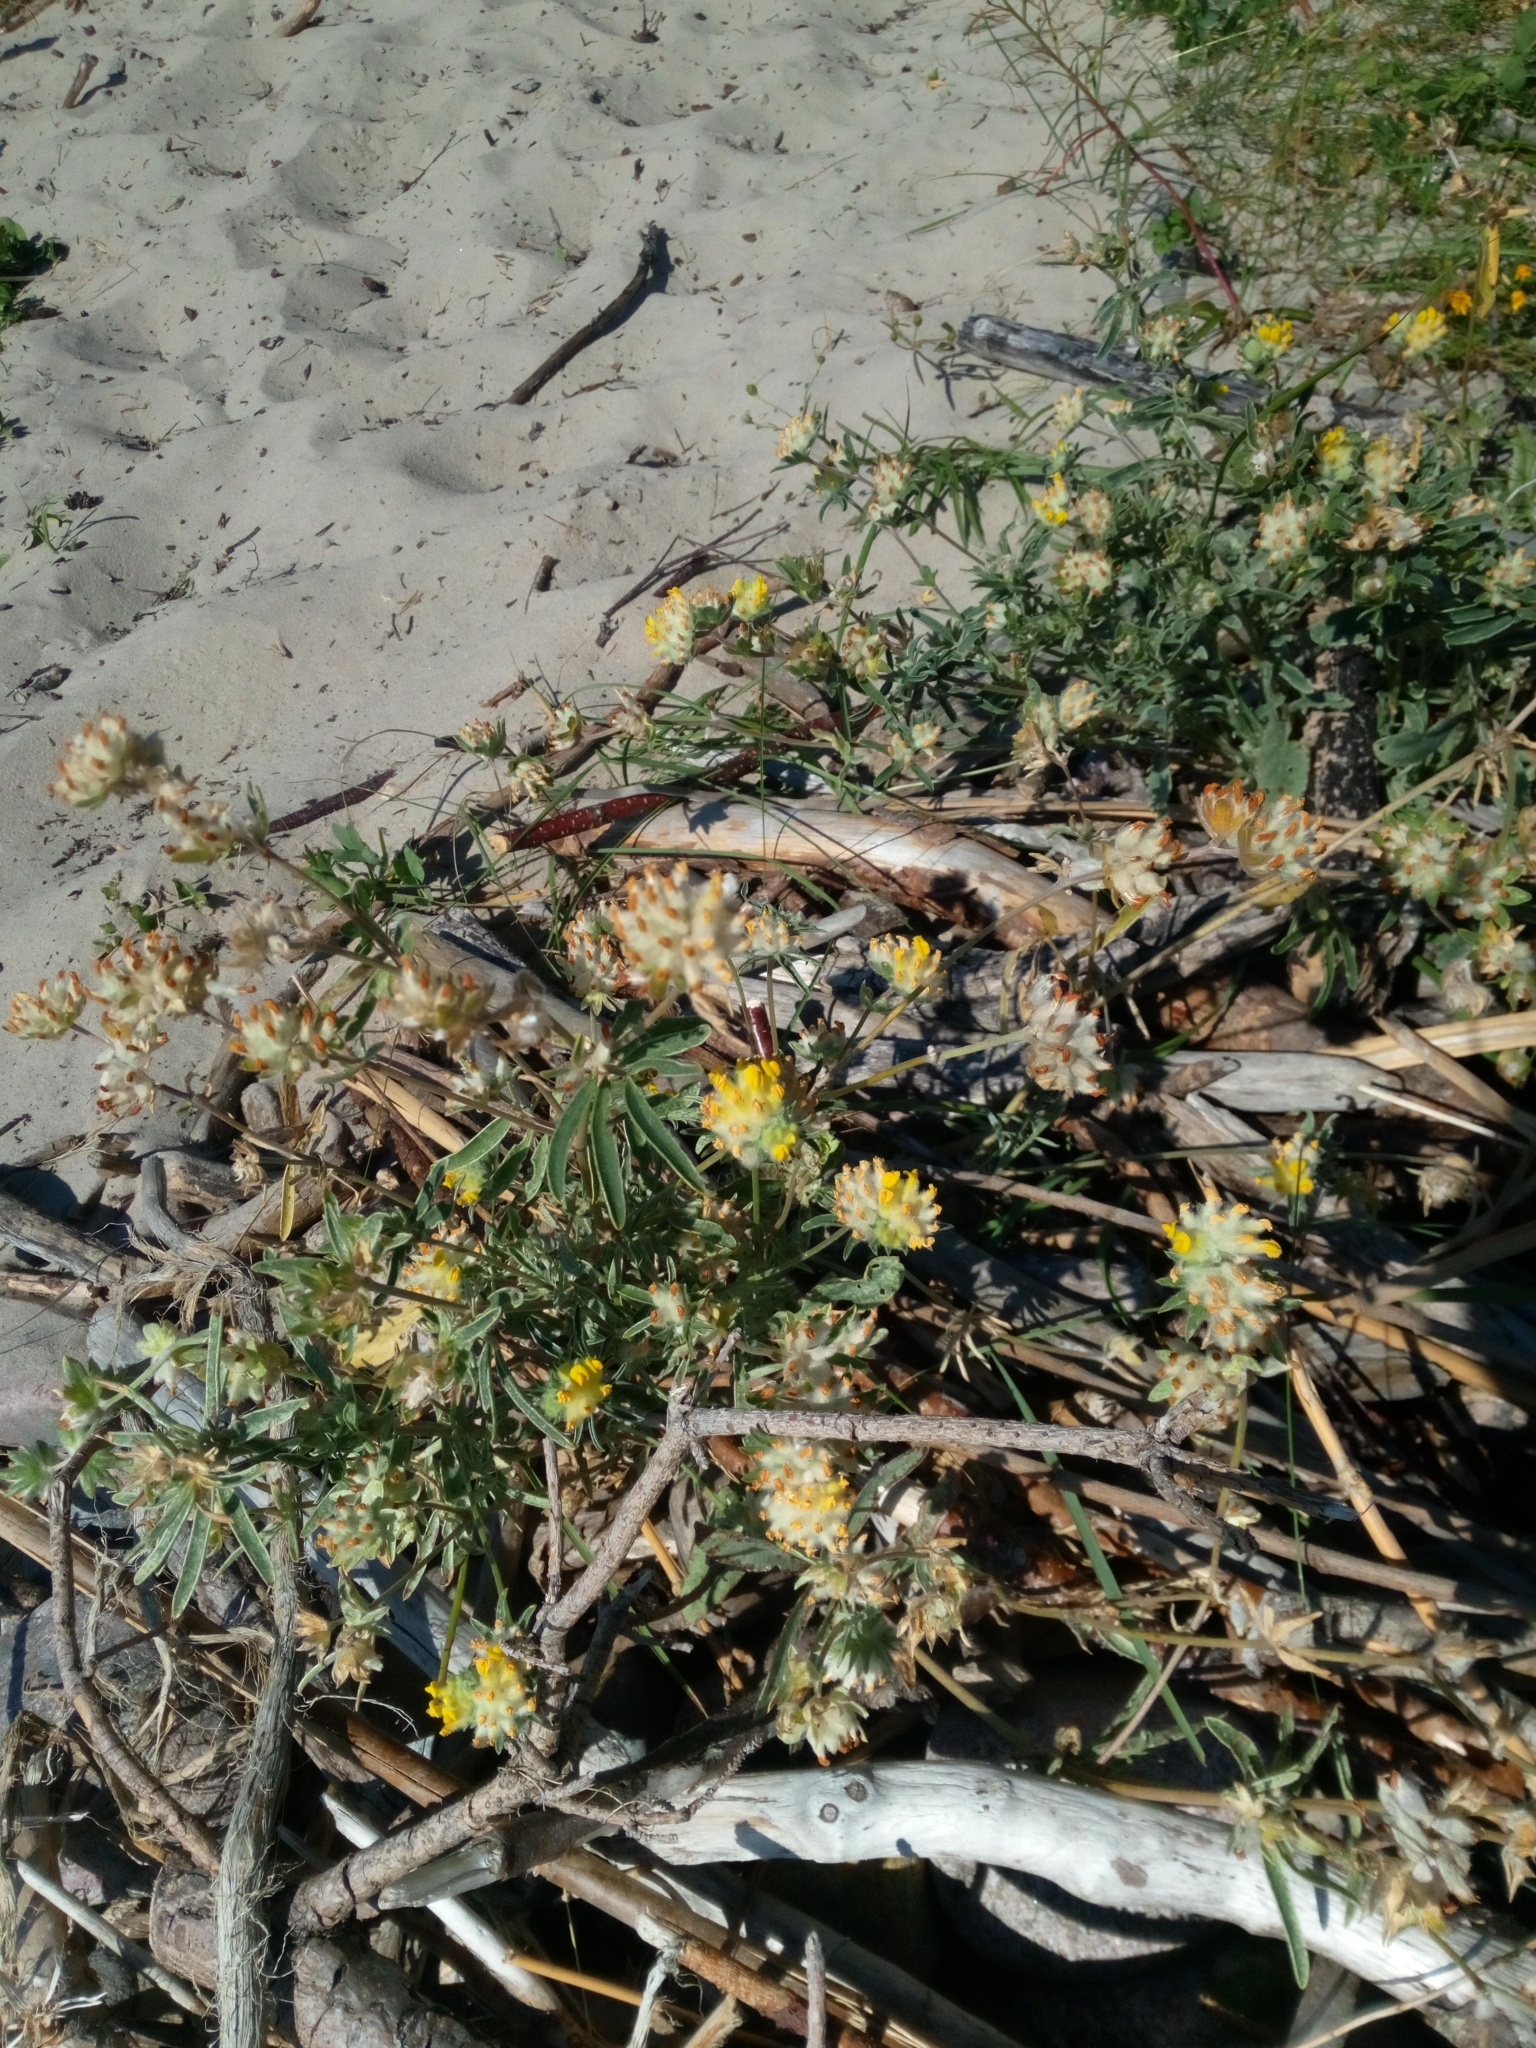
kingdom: Plantae
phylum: Tracheophyta
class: Magnoliopsida
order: Fabales
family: Fabaceae
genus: Anthyllis
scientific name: Anthyllis vulneraria
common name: Kidney vetch
